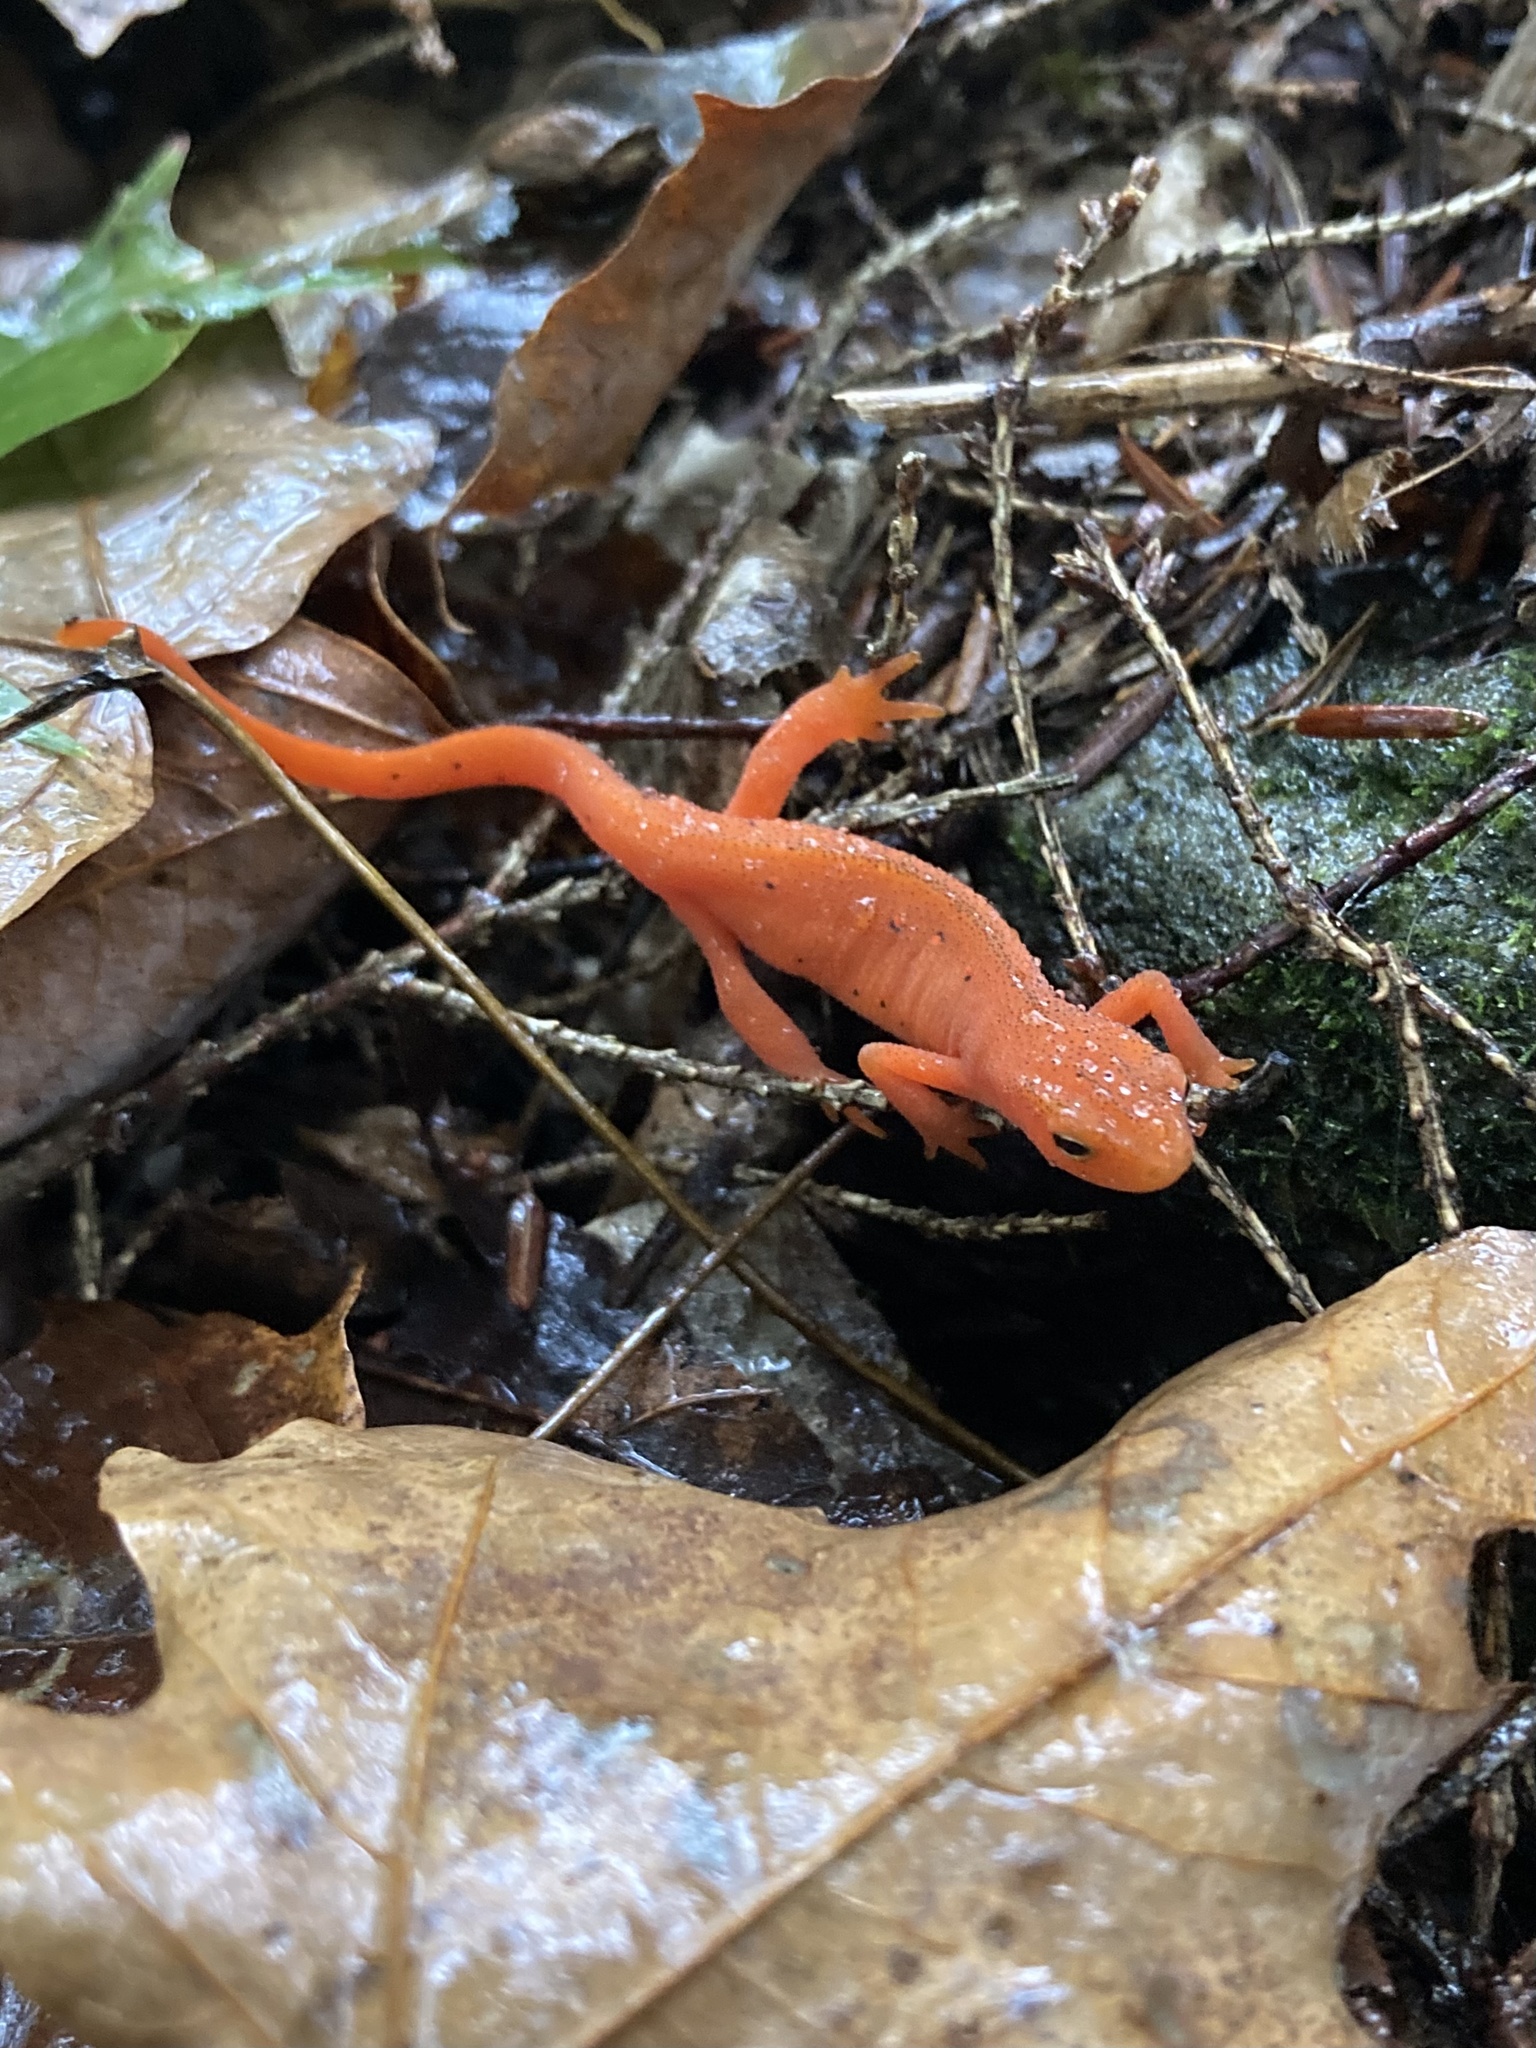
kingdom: Animalia
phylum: Chordata
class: Amphibia
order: Caudata
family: Salamandridae
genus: Notophthalmus
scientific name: Notophthalmus viridescens
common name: Eastern newt
